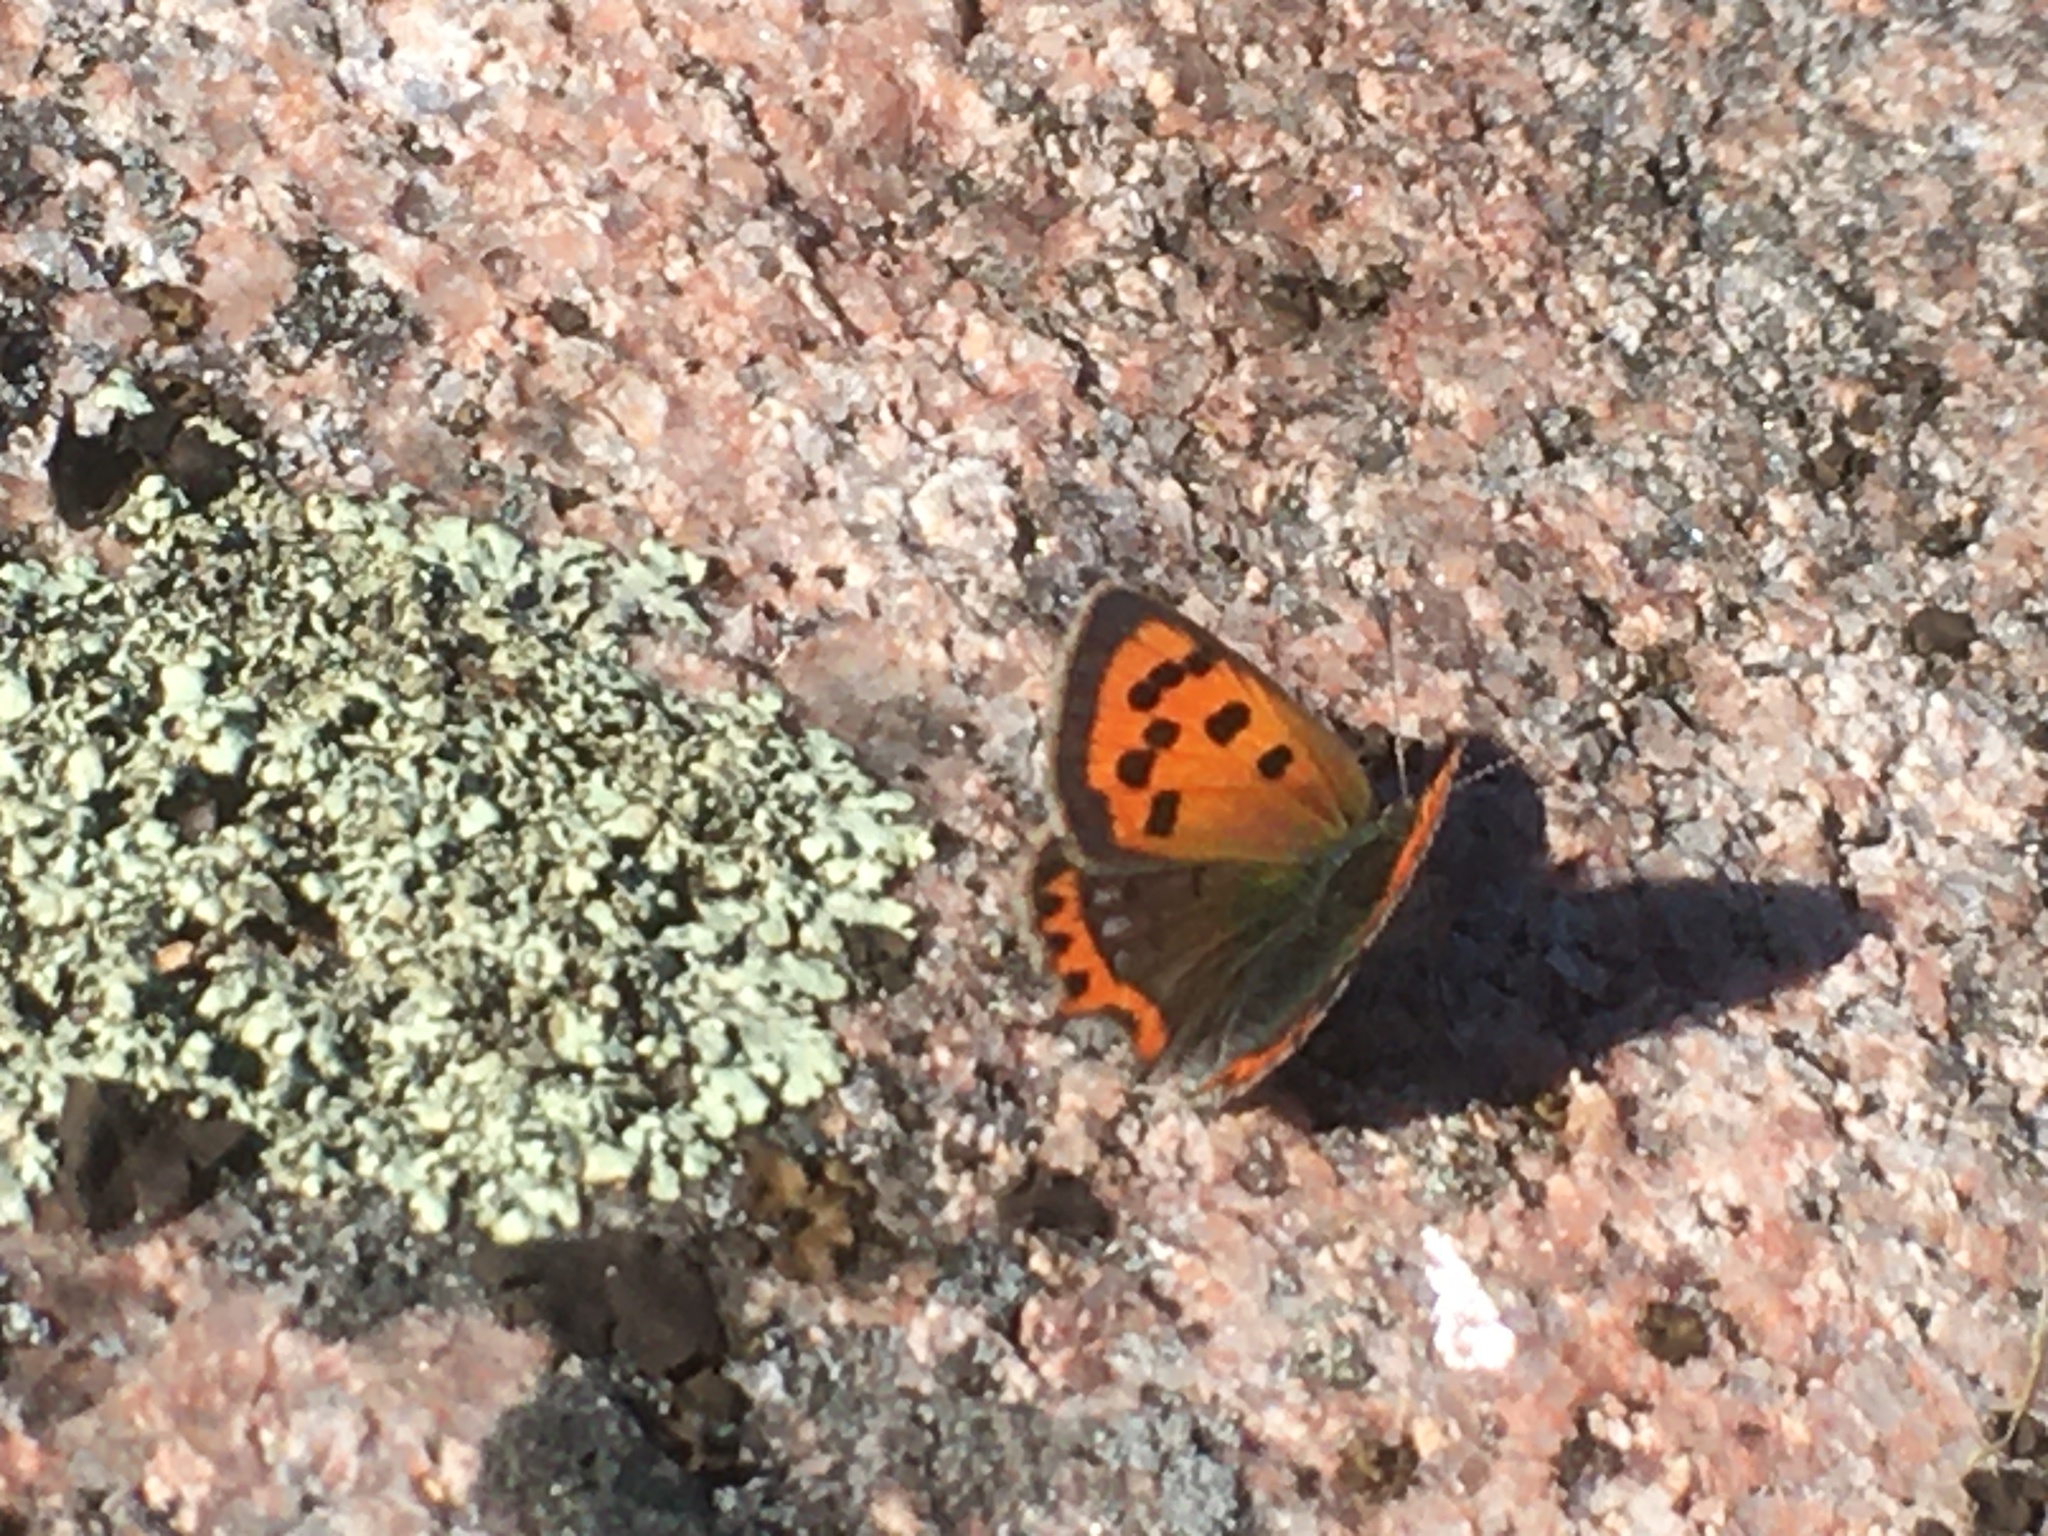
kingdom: Animalia
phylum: Arthropoda
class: Insecta
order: Lepidoptera
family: Lycaenidae
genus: Lycaena
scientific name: Lycaena phlaeas
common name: Small copper
